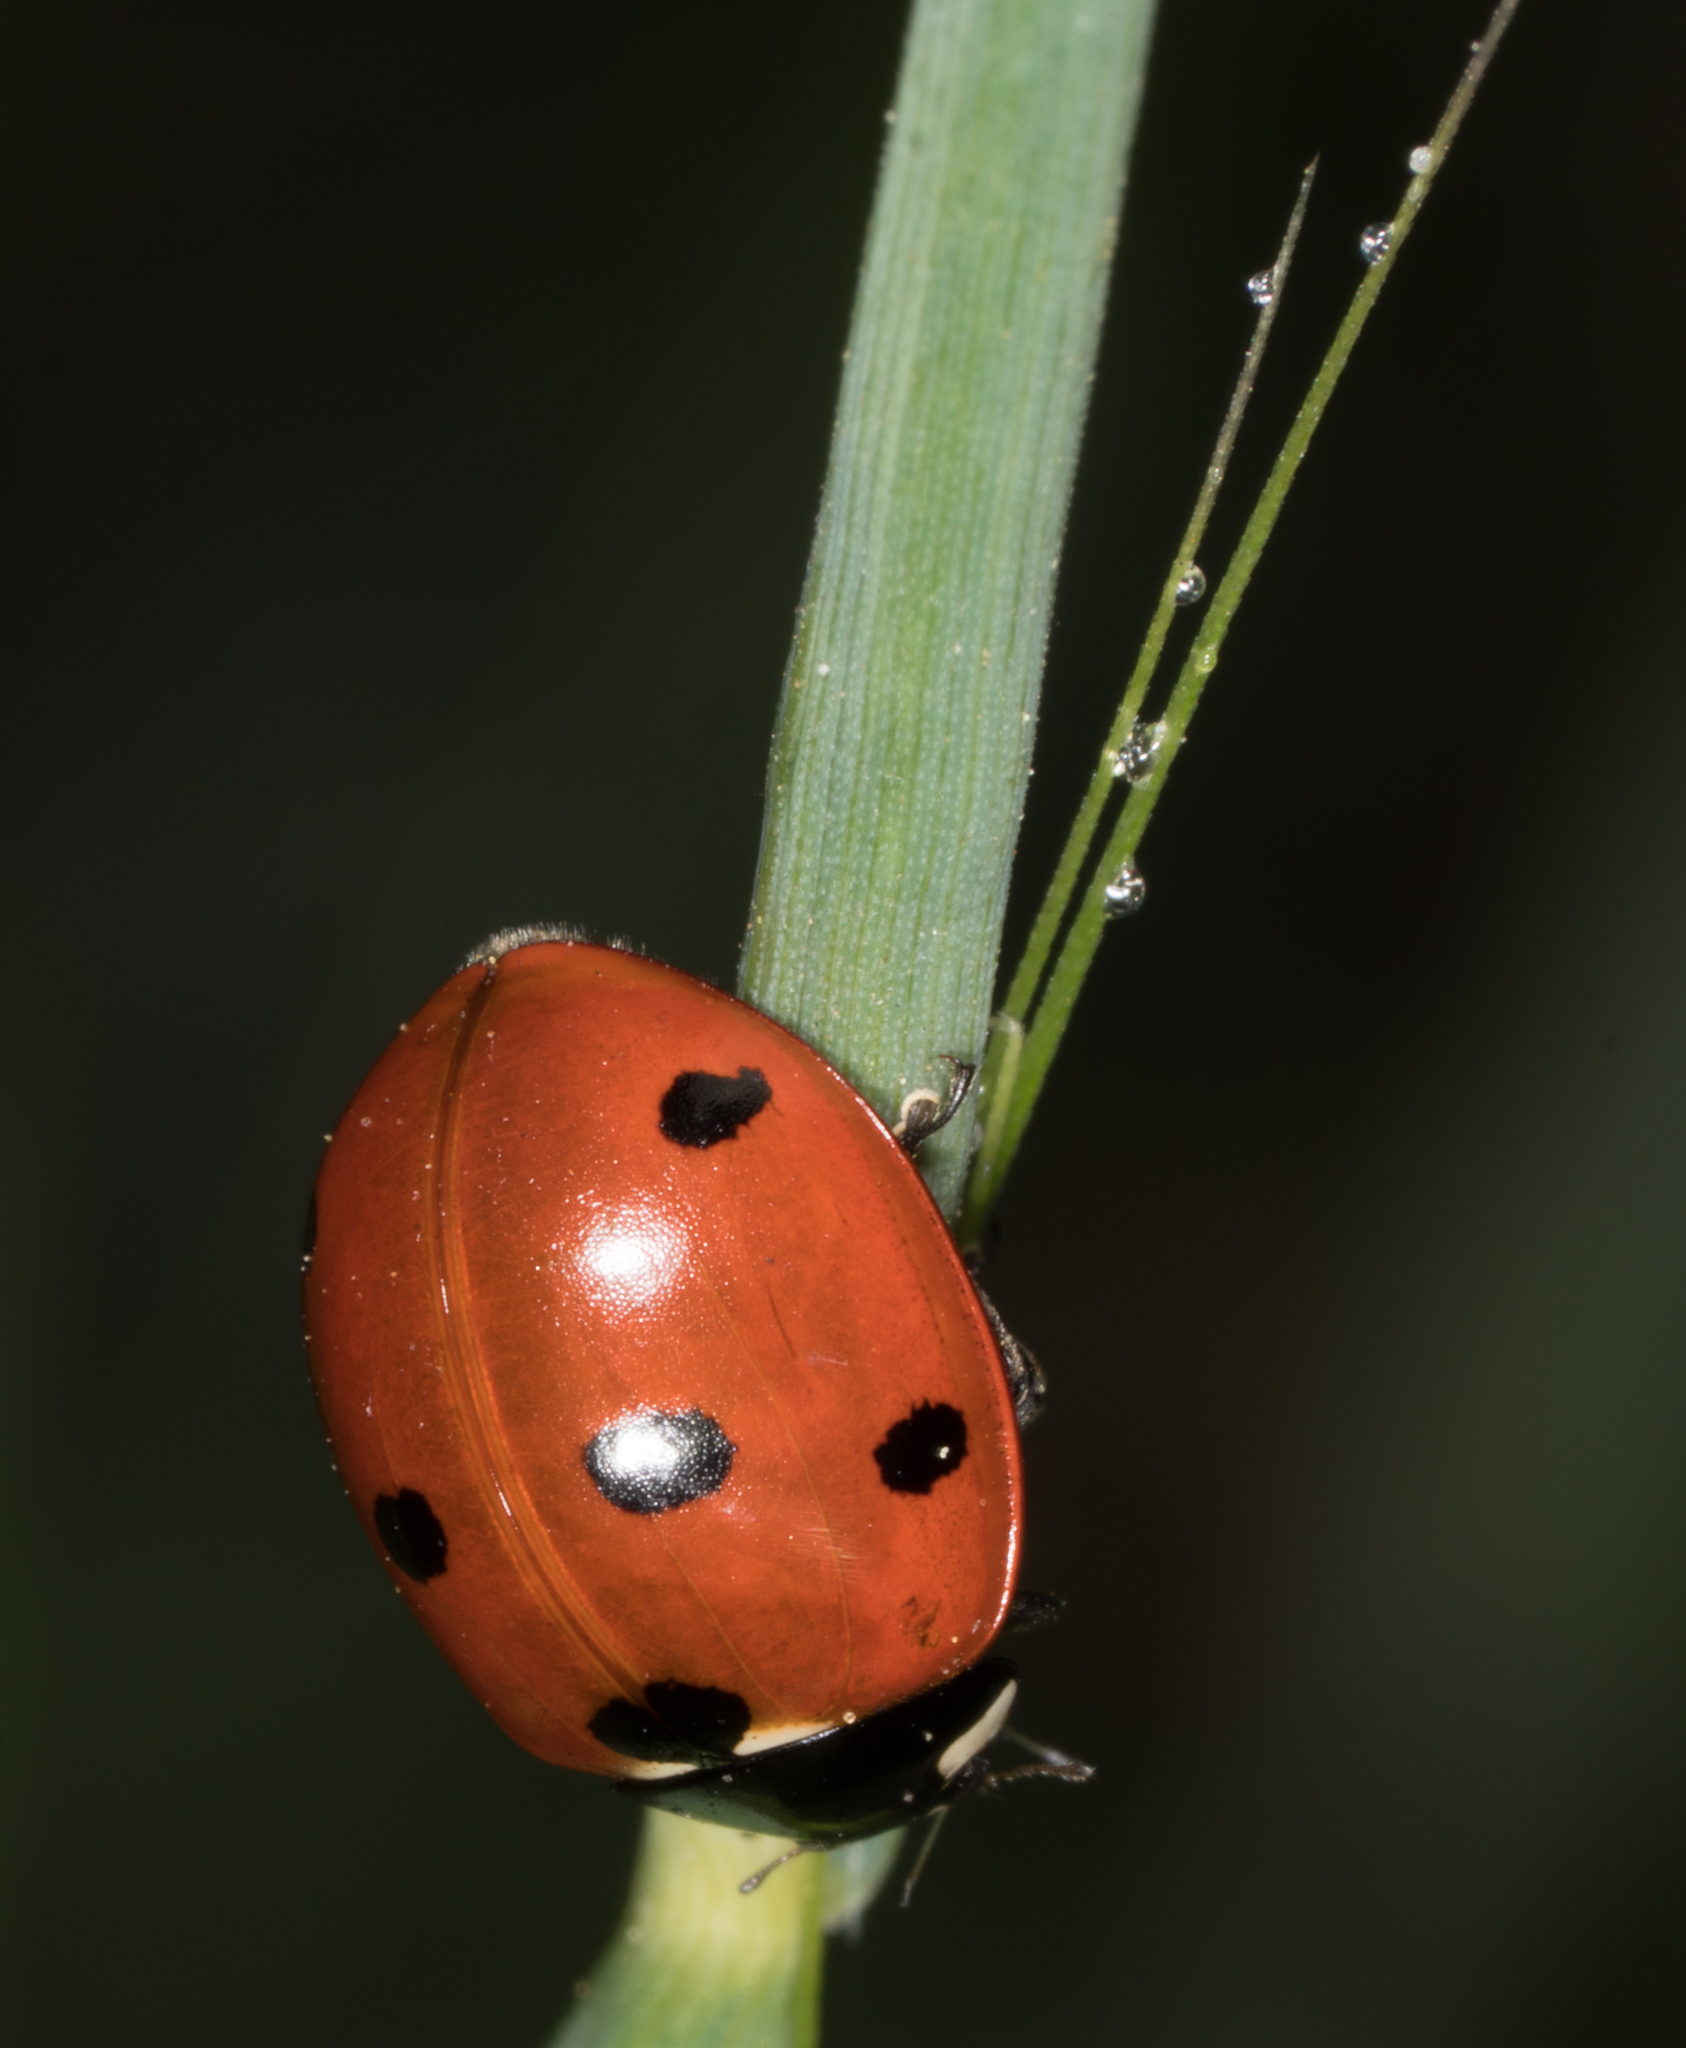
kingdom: Animalia
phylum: Arthropoda
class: Insecta
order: Coleoptera
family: Coccinellidae
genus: Coccinella
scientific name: Coccinella septempunctata
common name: Sevenspotted lady beetle
